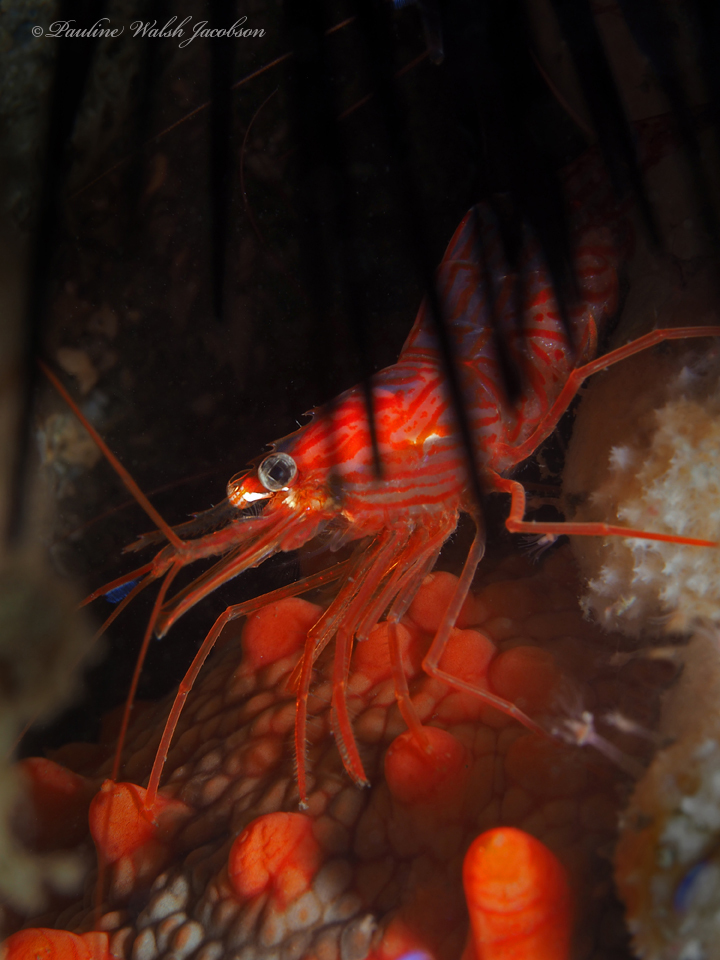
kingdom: Animalia
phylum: Arthropoda
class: Malacostraca
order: Decapoda
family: Lysmatidae
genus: Lysmata
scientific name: Lysmata rafa
